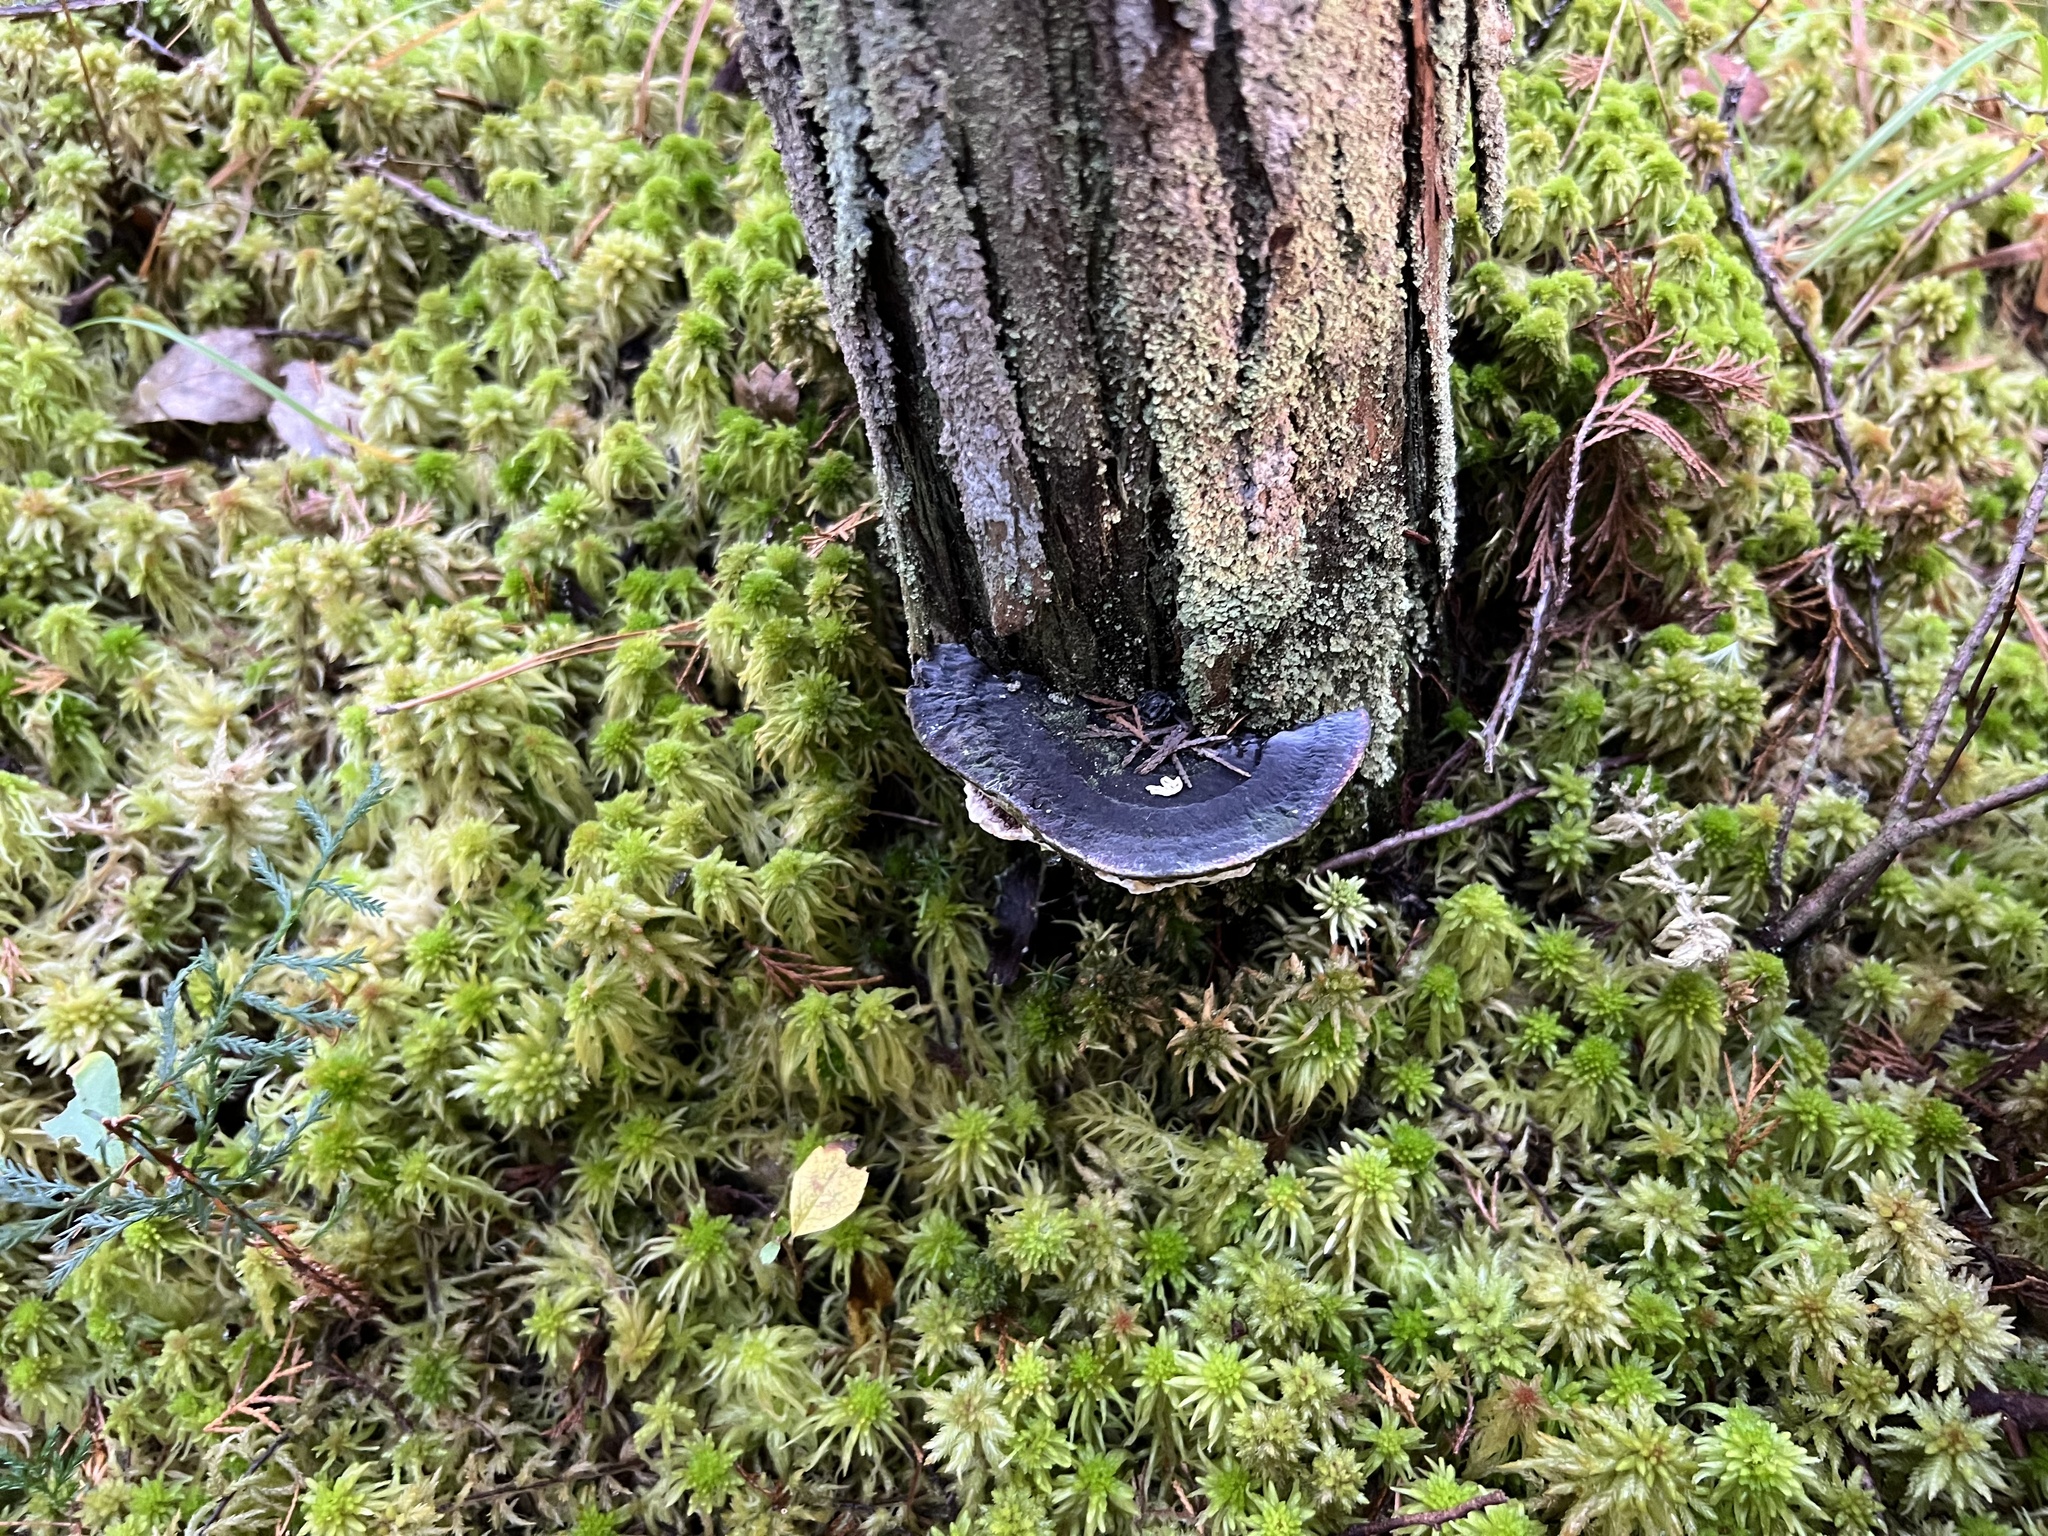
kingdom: Fungi
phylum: Basidiomycota
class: Agaricomycetes
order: Russulales
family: Bondarzewiaceae
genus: Heterobasidion
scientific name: Heterobasidion annosum
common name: Root rot
